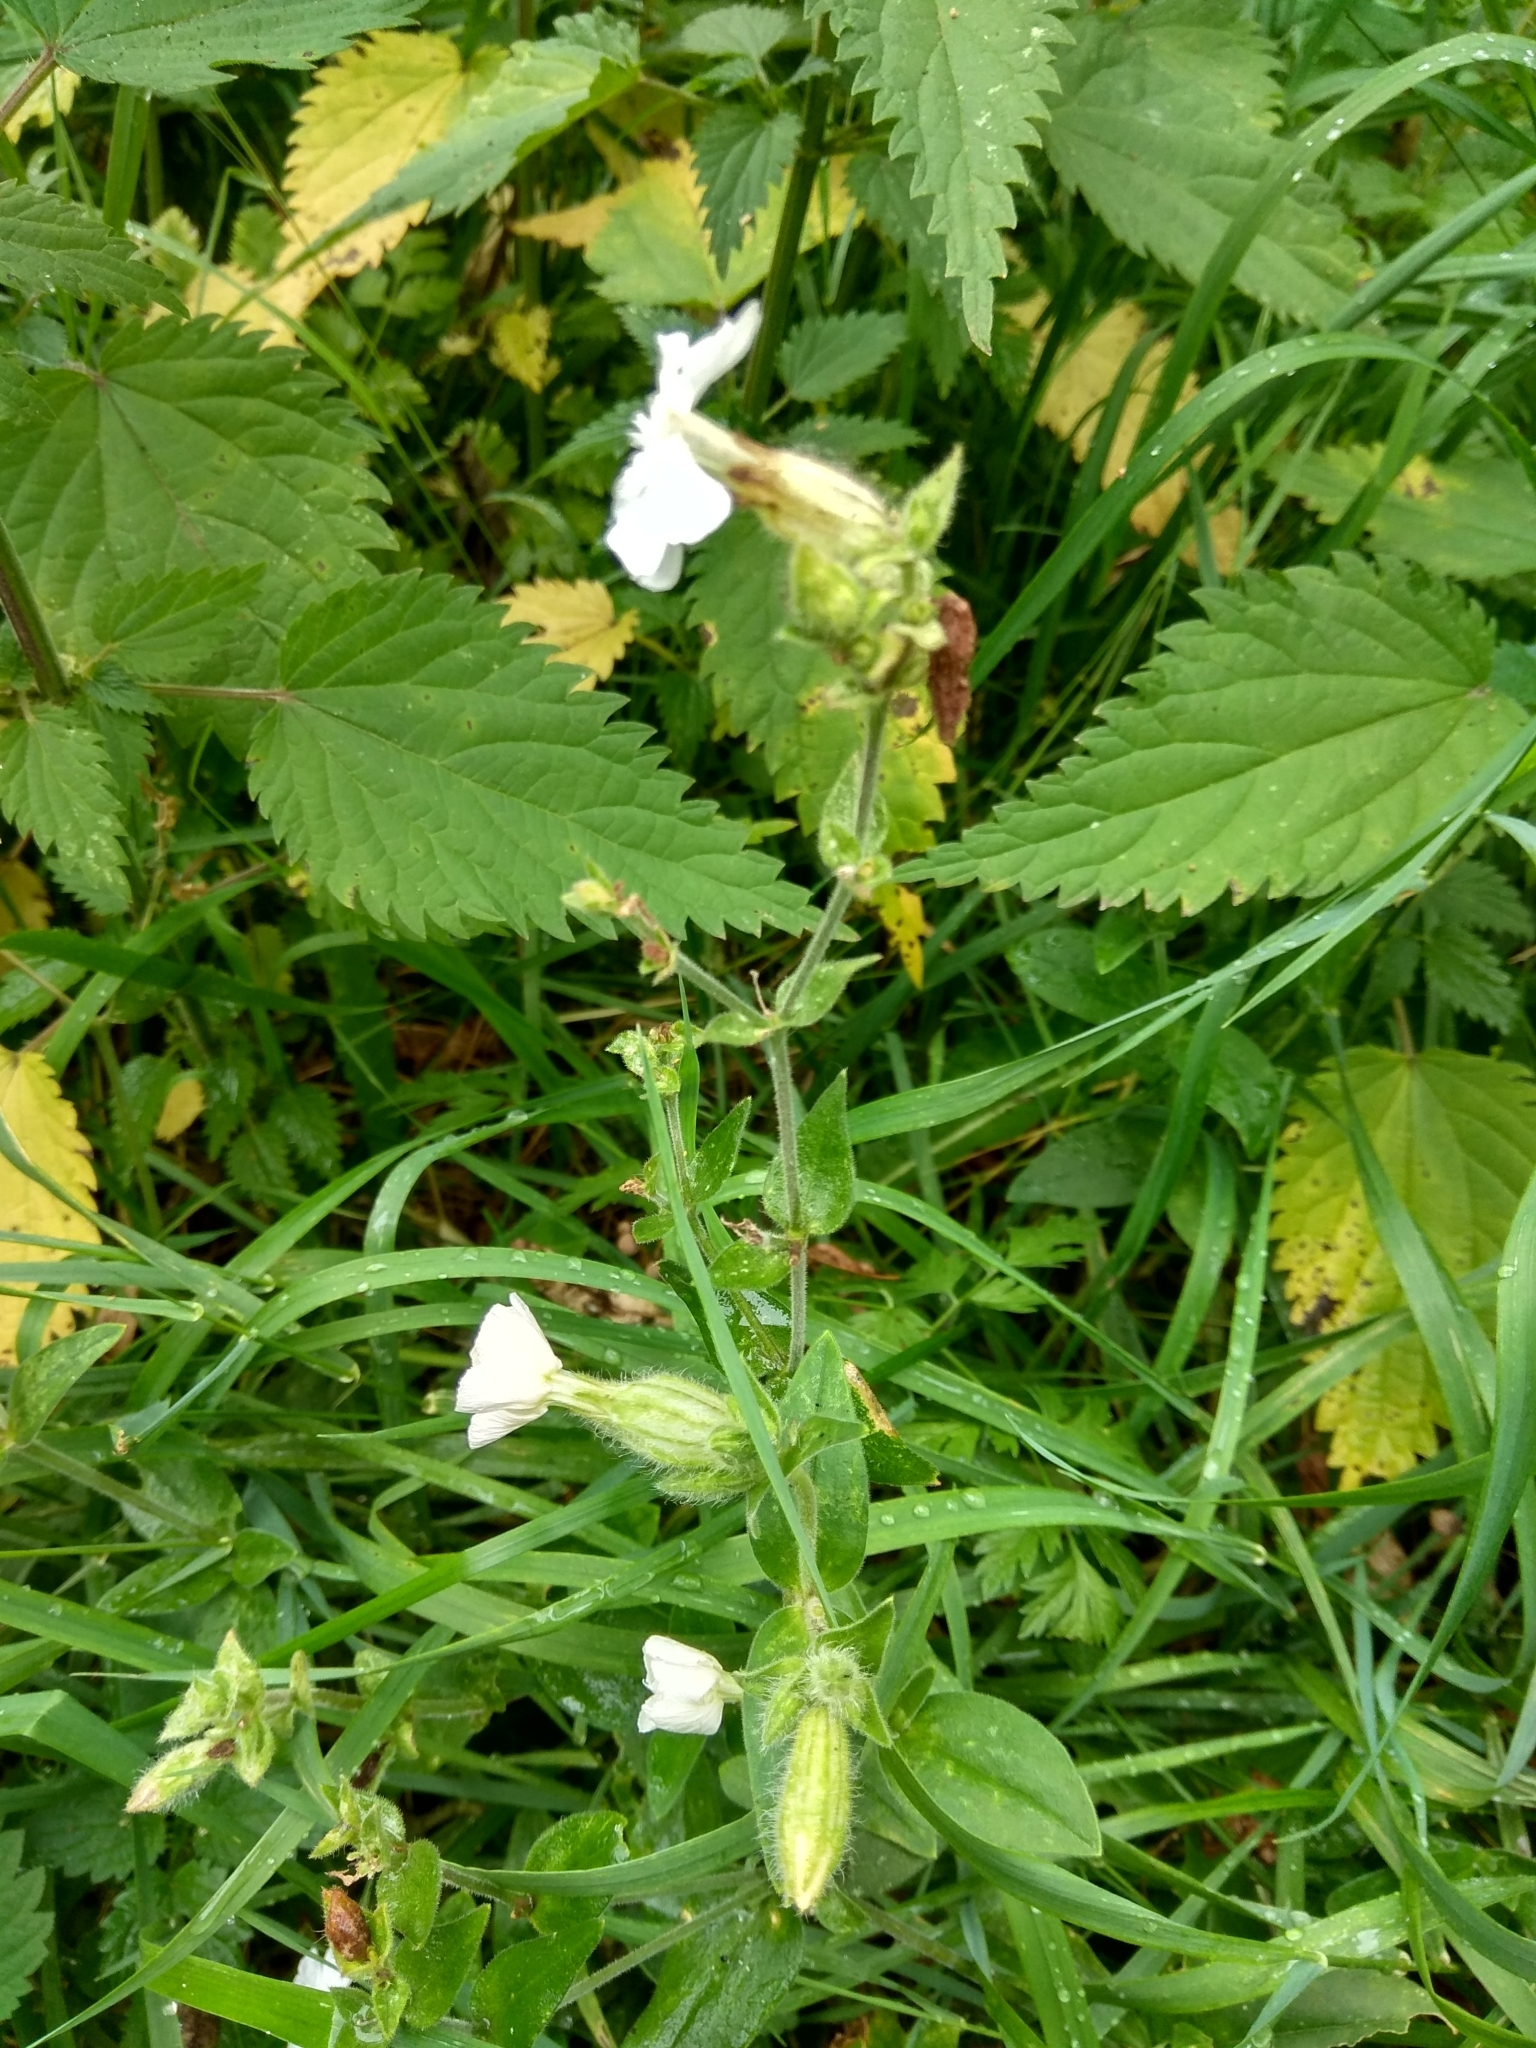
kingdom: Plantae
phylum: Tracheophyta
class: Magnoliopsida
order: Caryophyllales
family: Caryophyllaceae
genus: Silene
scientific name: Silene latifolia
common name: White campion
